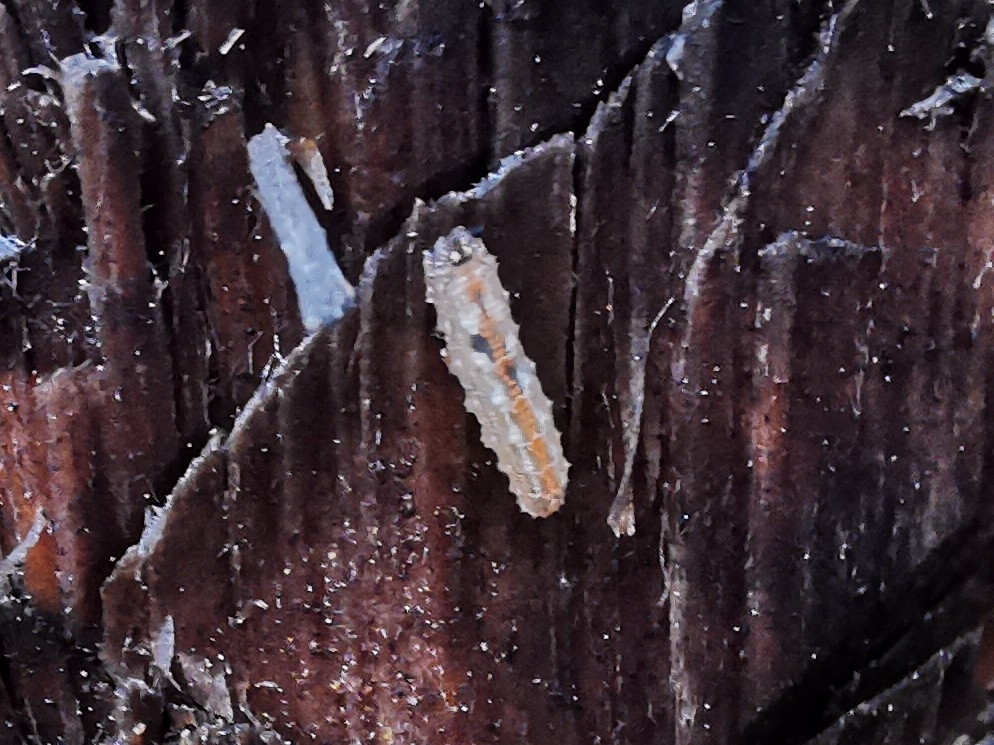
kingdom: Animalia
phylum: Arthropoda
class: Insecta
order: Diptera
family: Syrphidae
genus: Syrphus
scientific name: Syrphus
